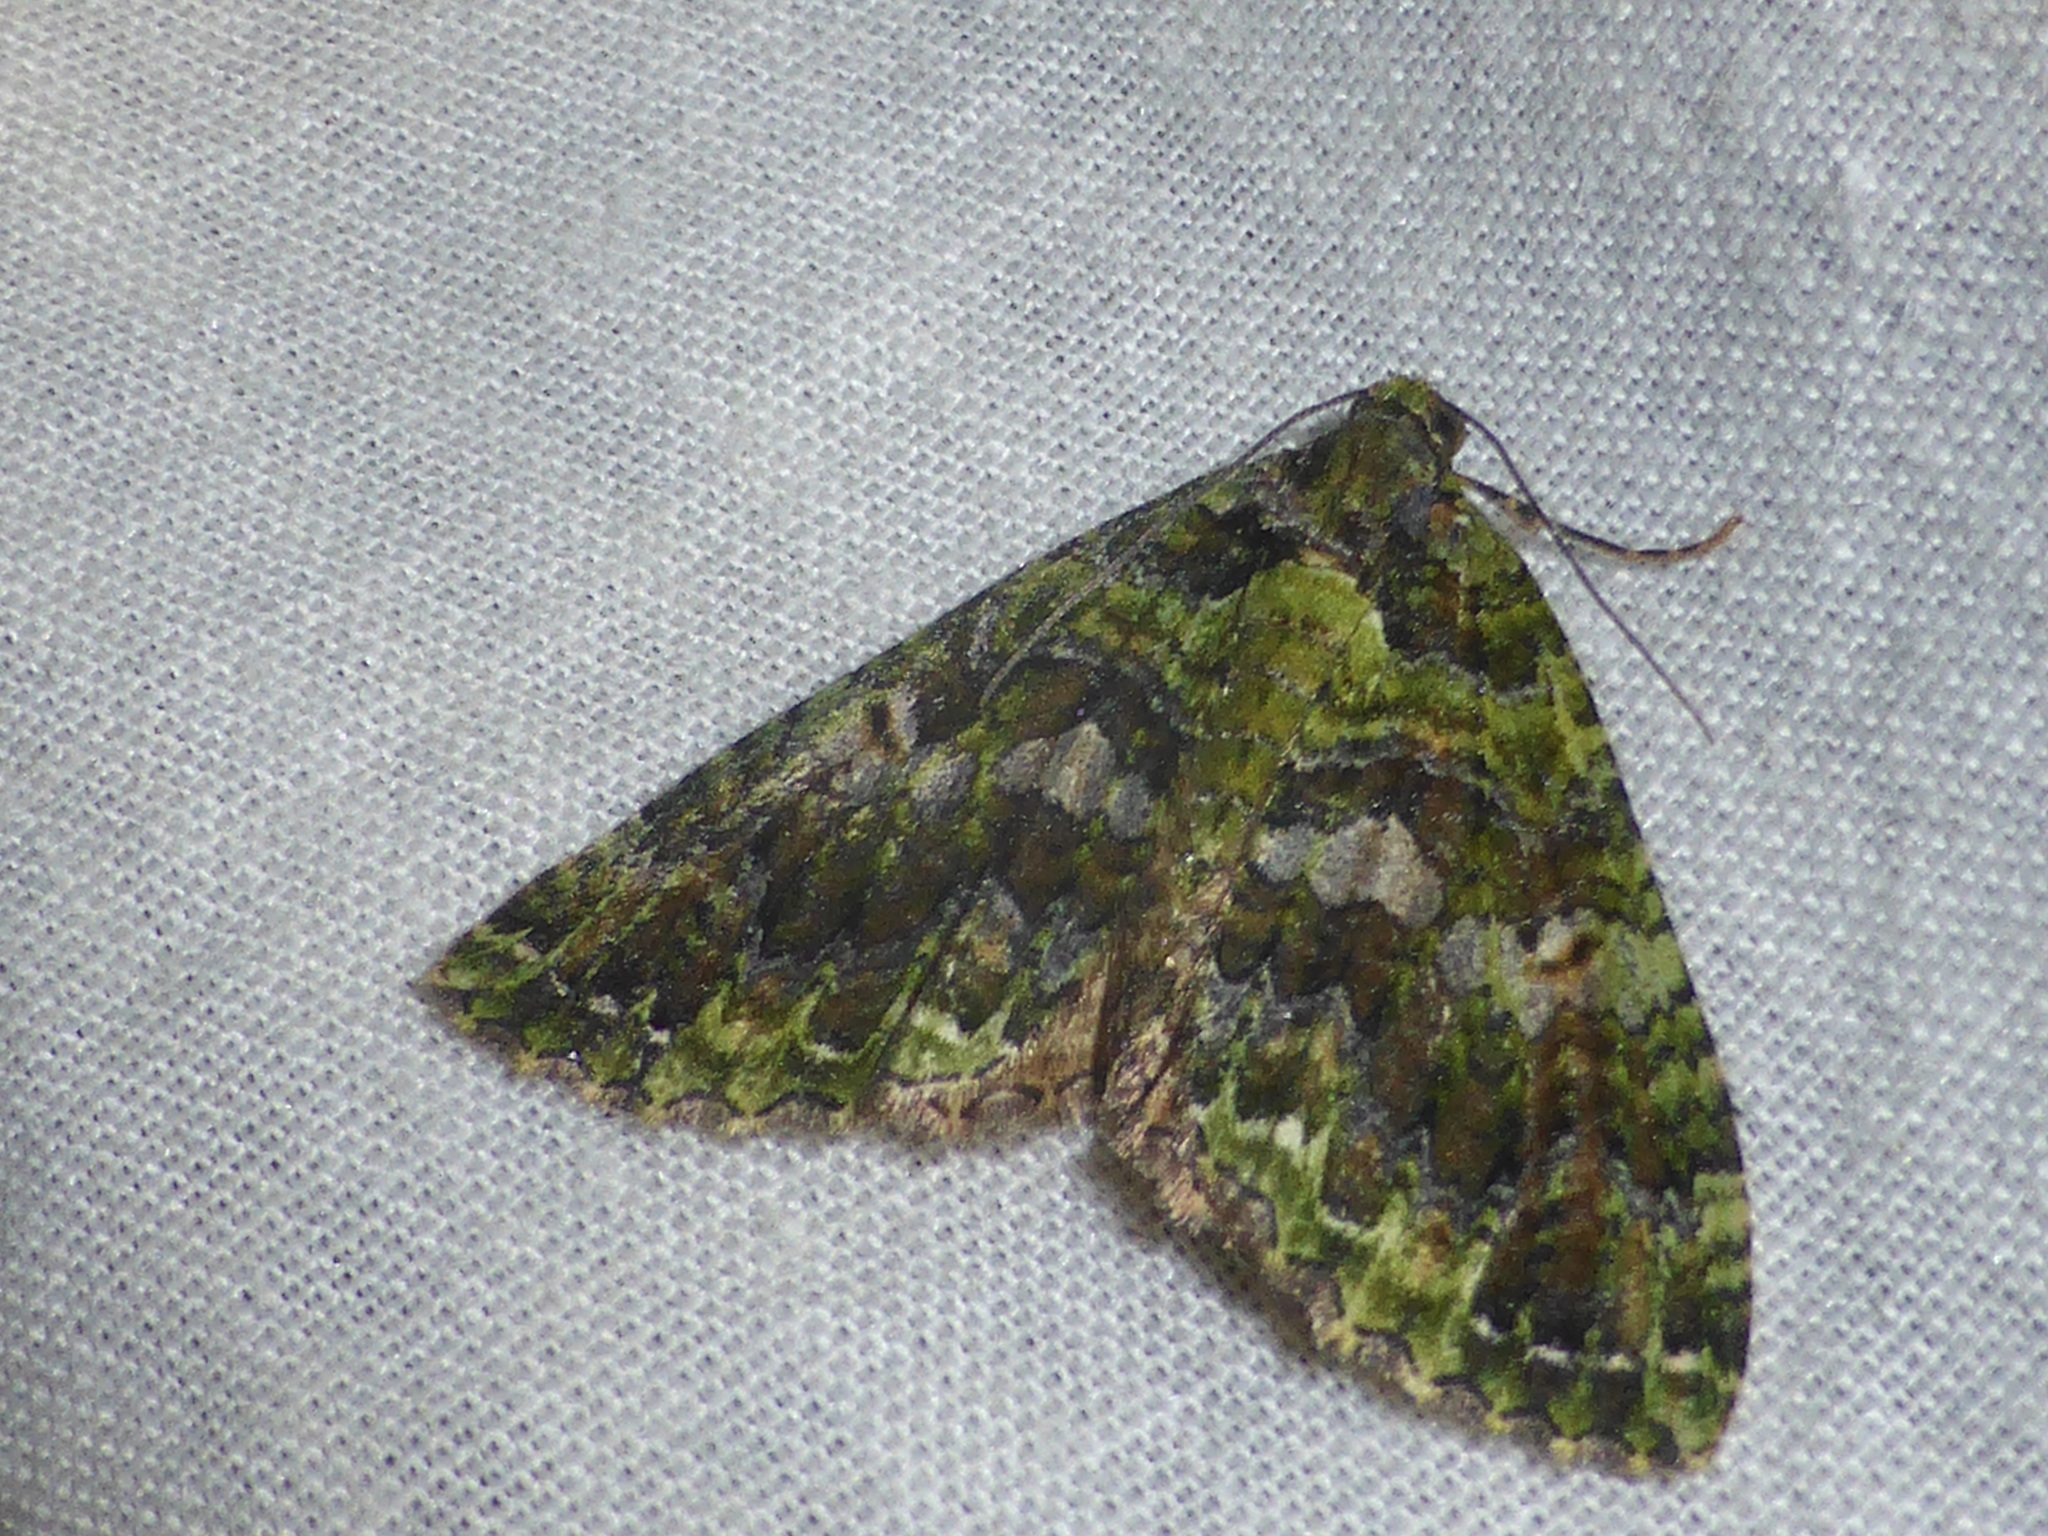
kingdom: Animalia
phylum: Arthropoda
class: Insecta
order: Lepidoptera
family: Geometridae
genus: Austrocidaria
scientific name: Austrocidaria similata
